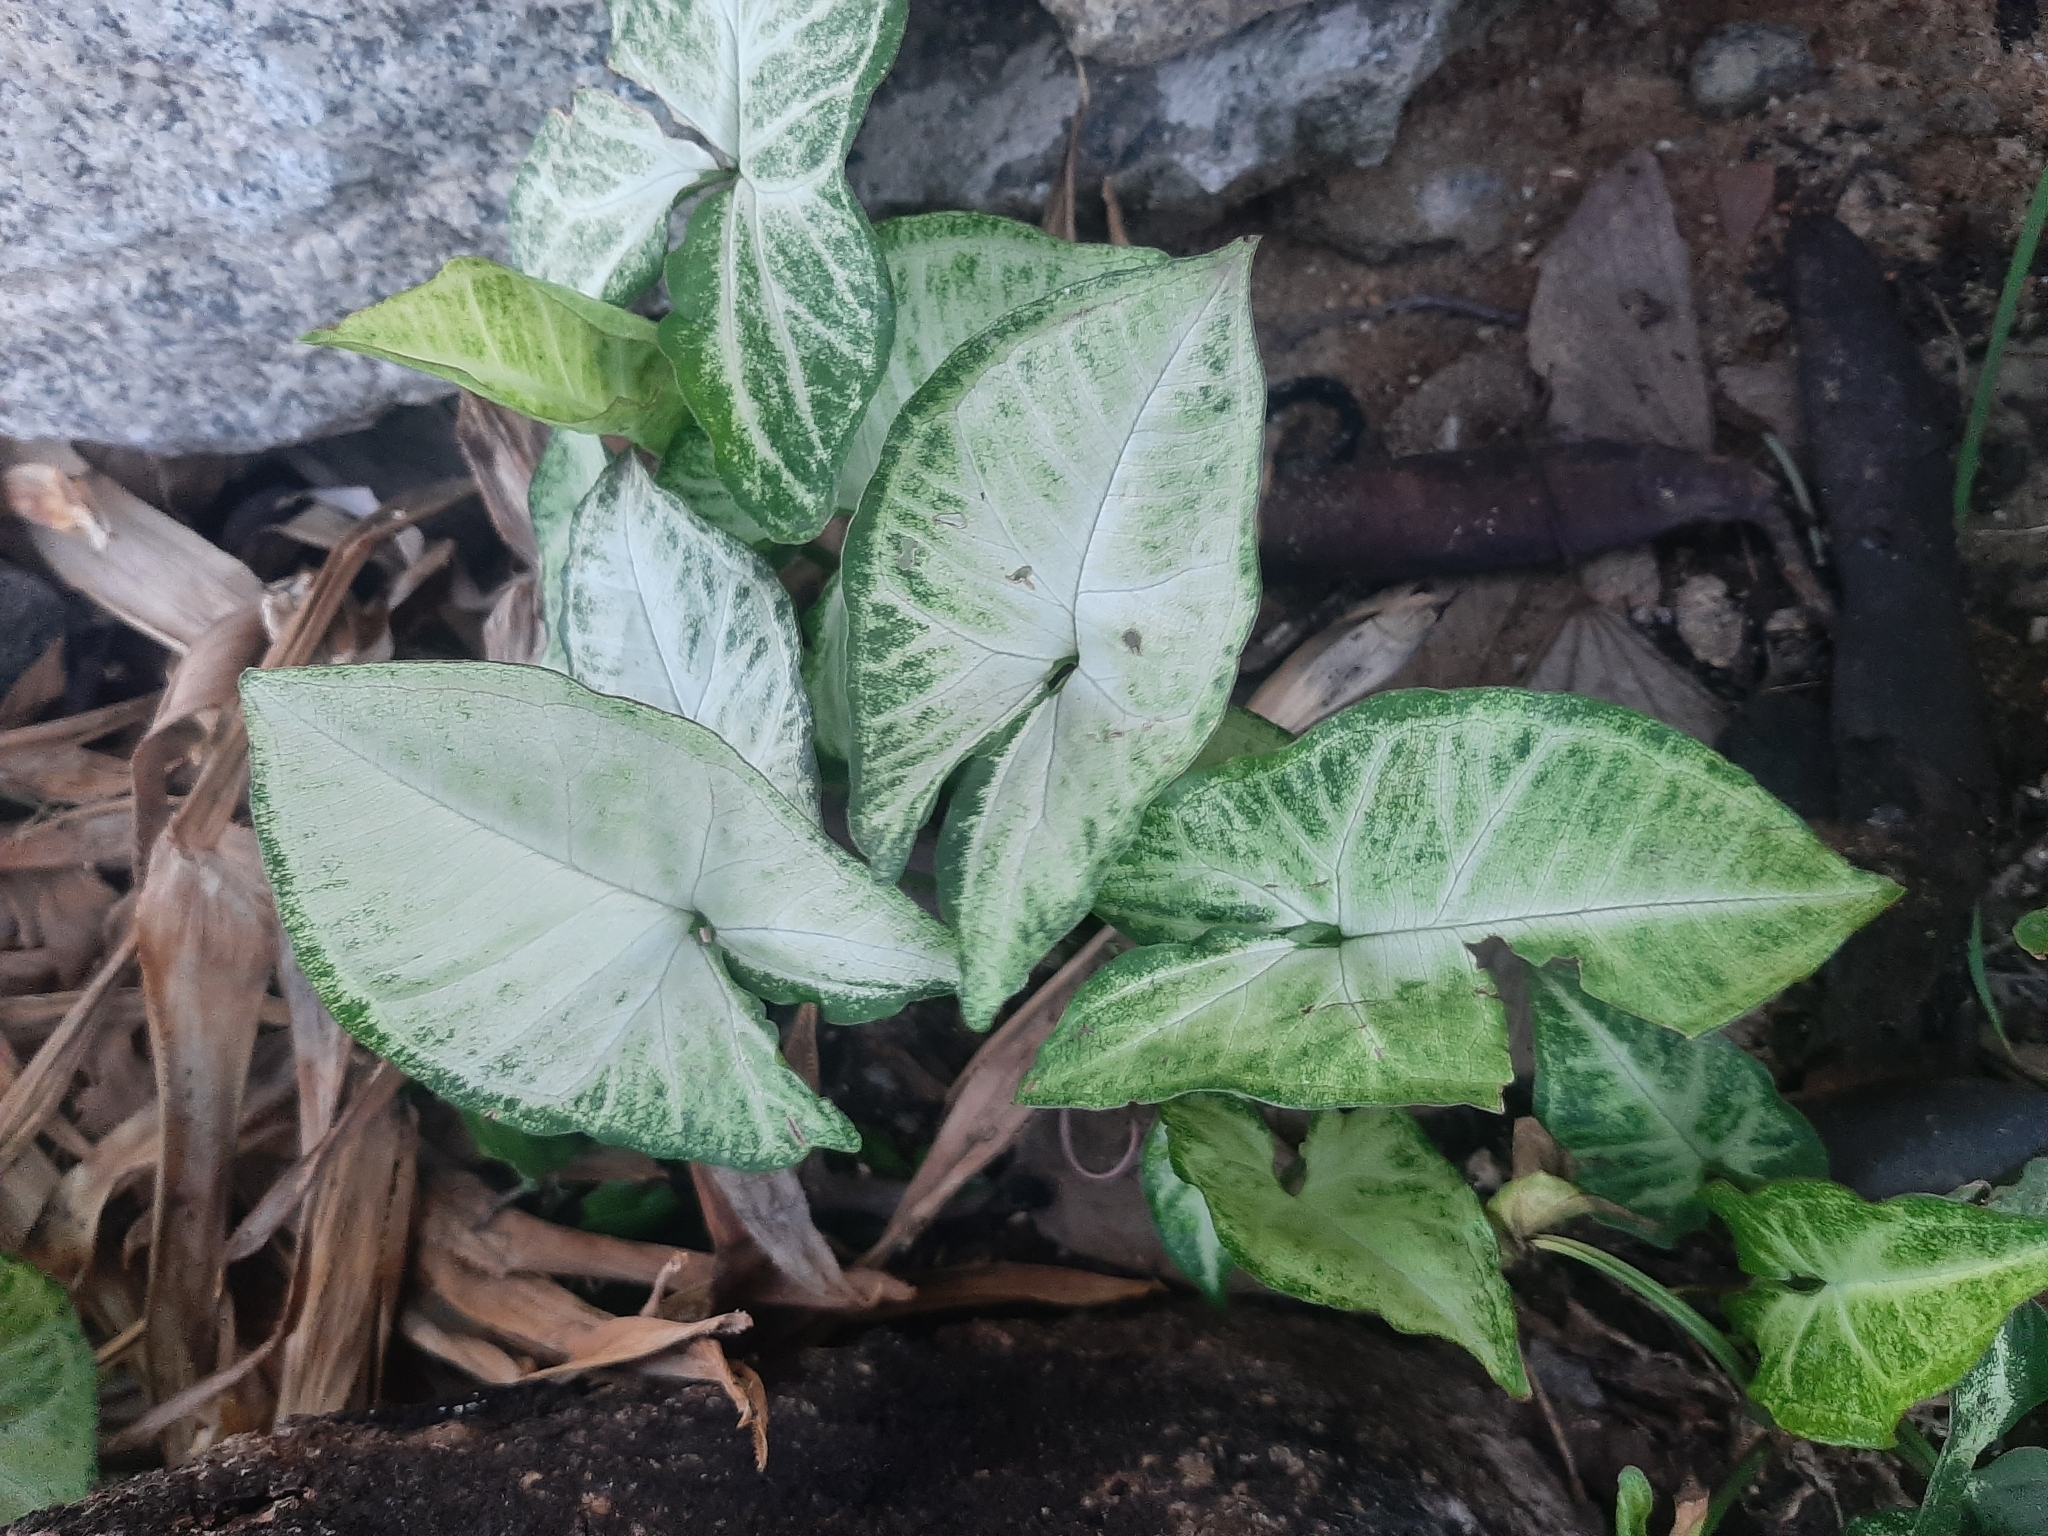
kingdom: Plantae
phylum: Tracheophyta
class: Liliopsida
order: Alismatales
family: Araceae
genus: Syngonium
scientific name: Syngonium podophyllum
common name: American evergreen
